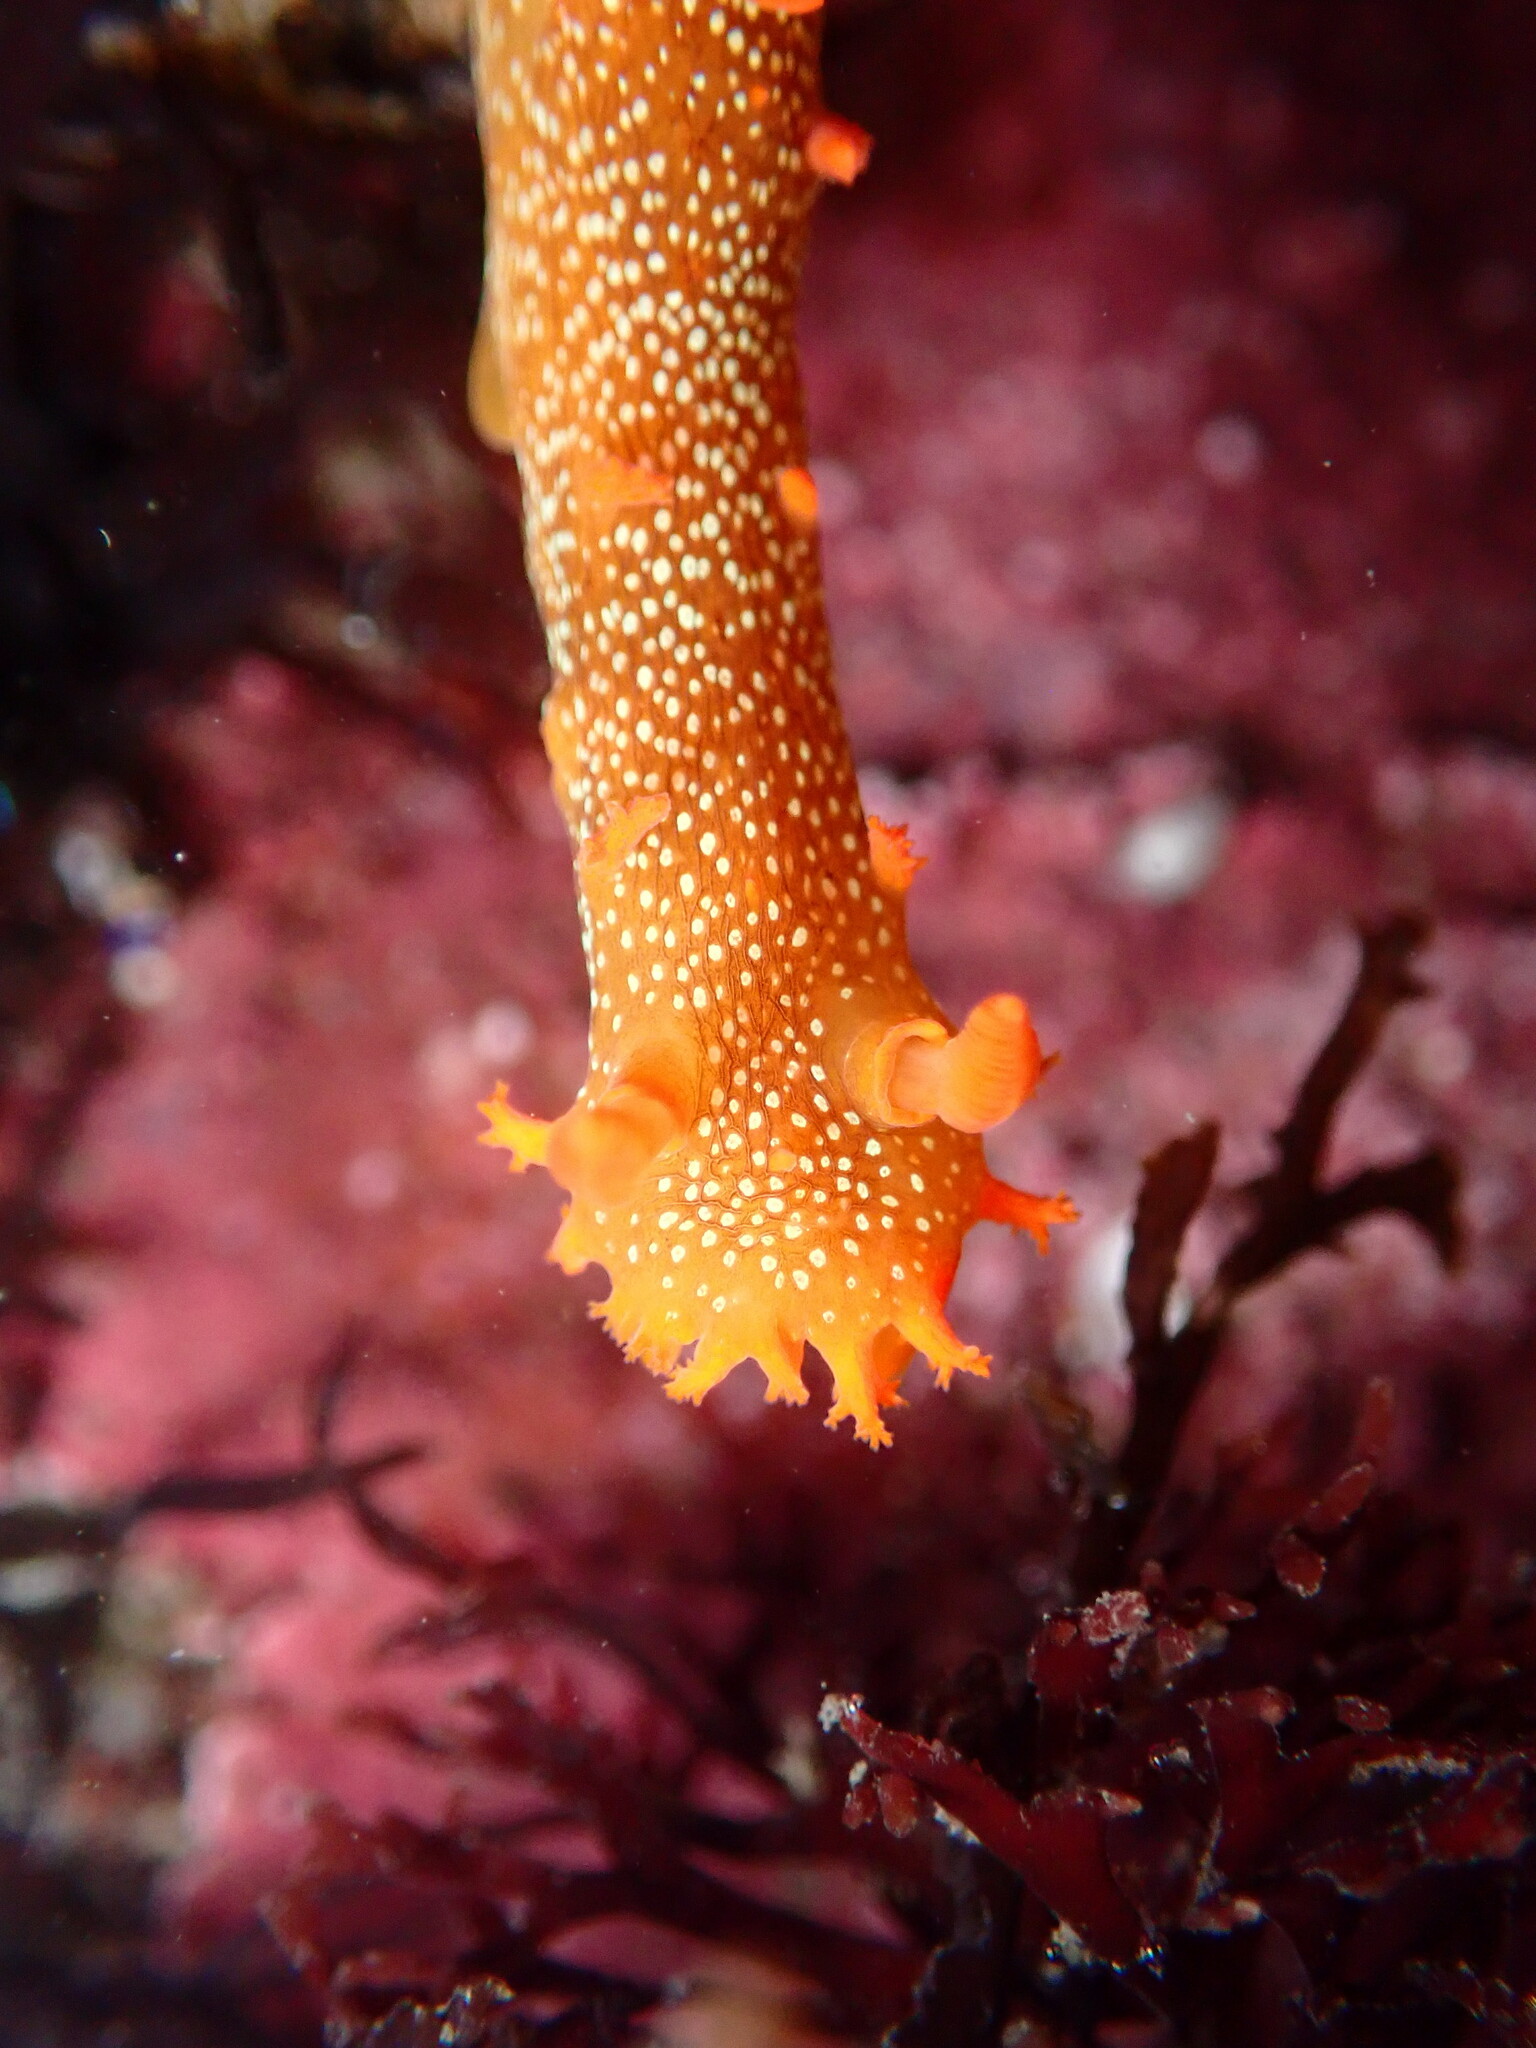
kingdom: Animalia
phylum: Mollusca
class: Gastropoda
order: Nudibranchia
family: Polyceridae
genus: Triopha
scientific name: Triopha maculata
